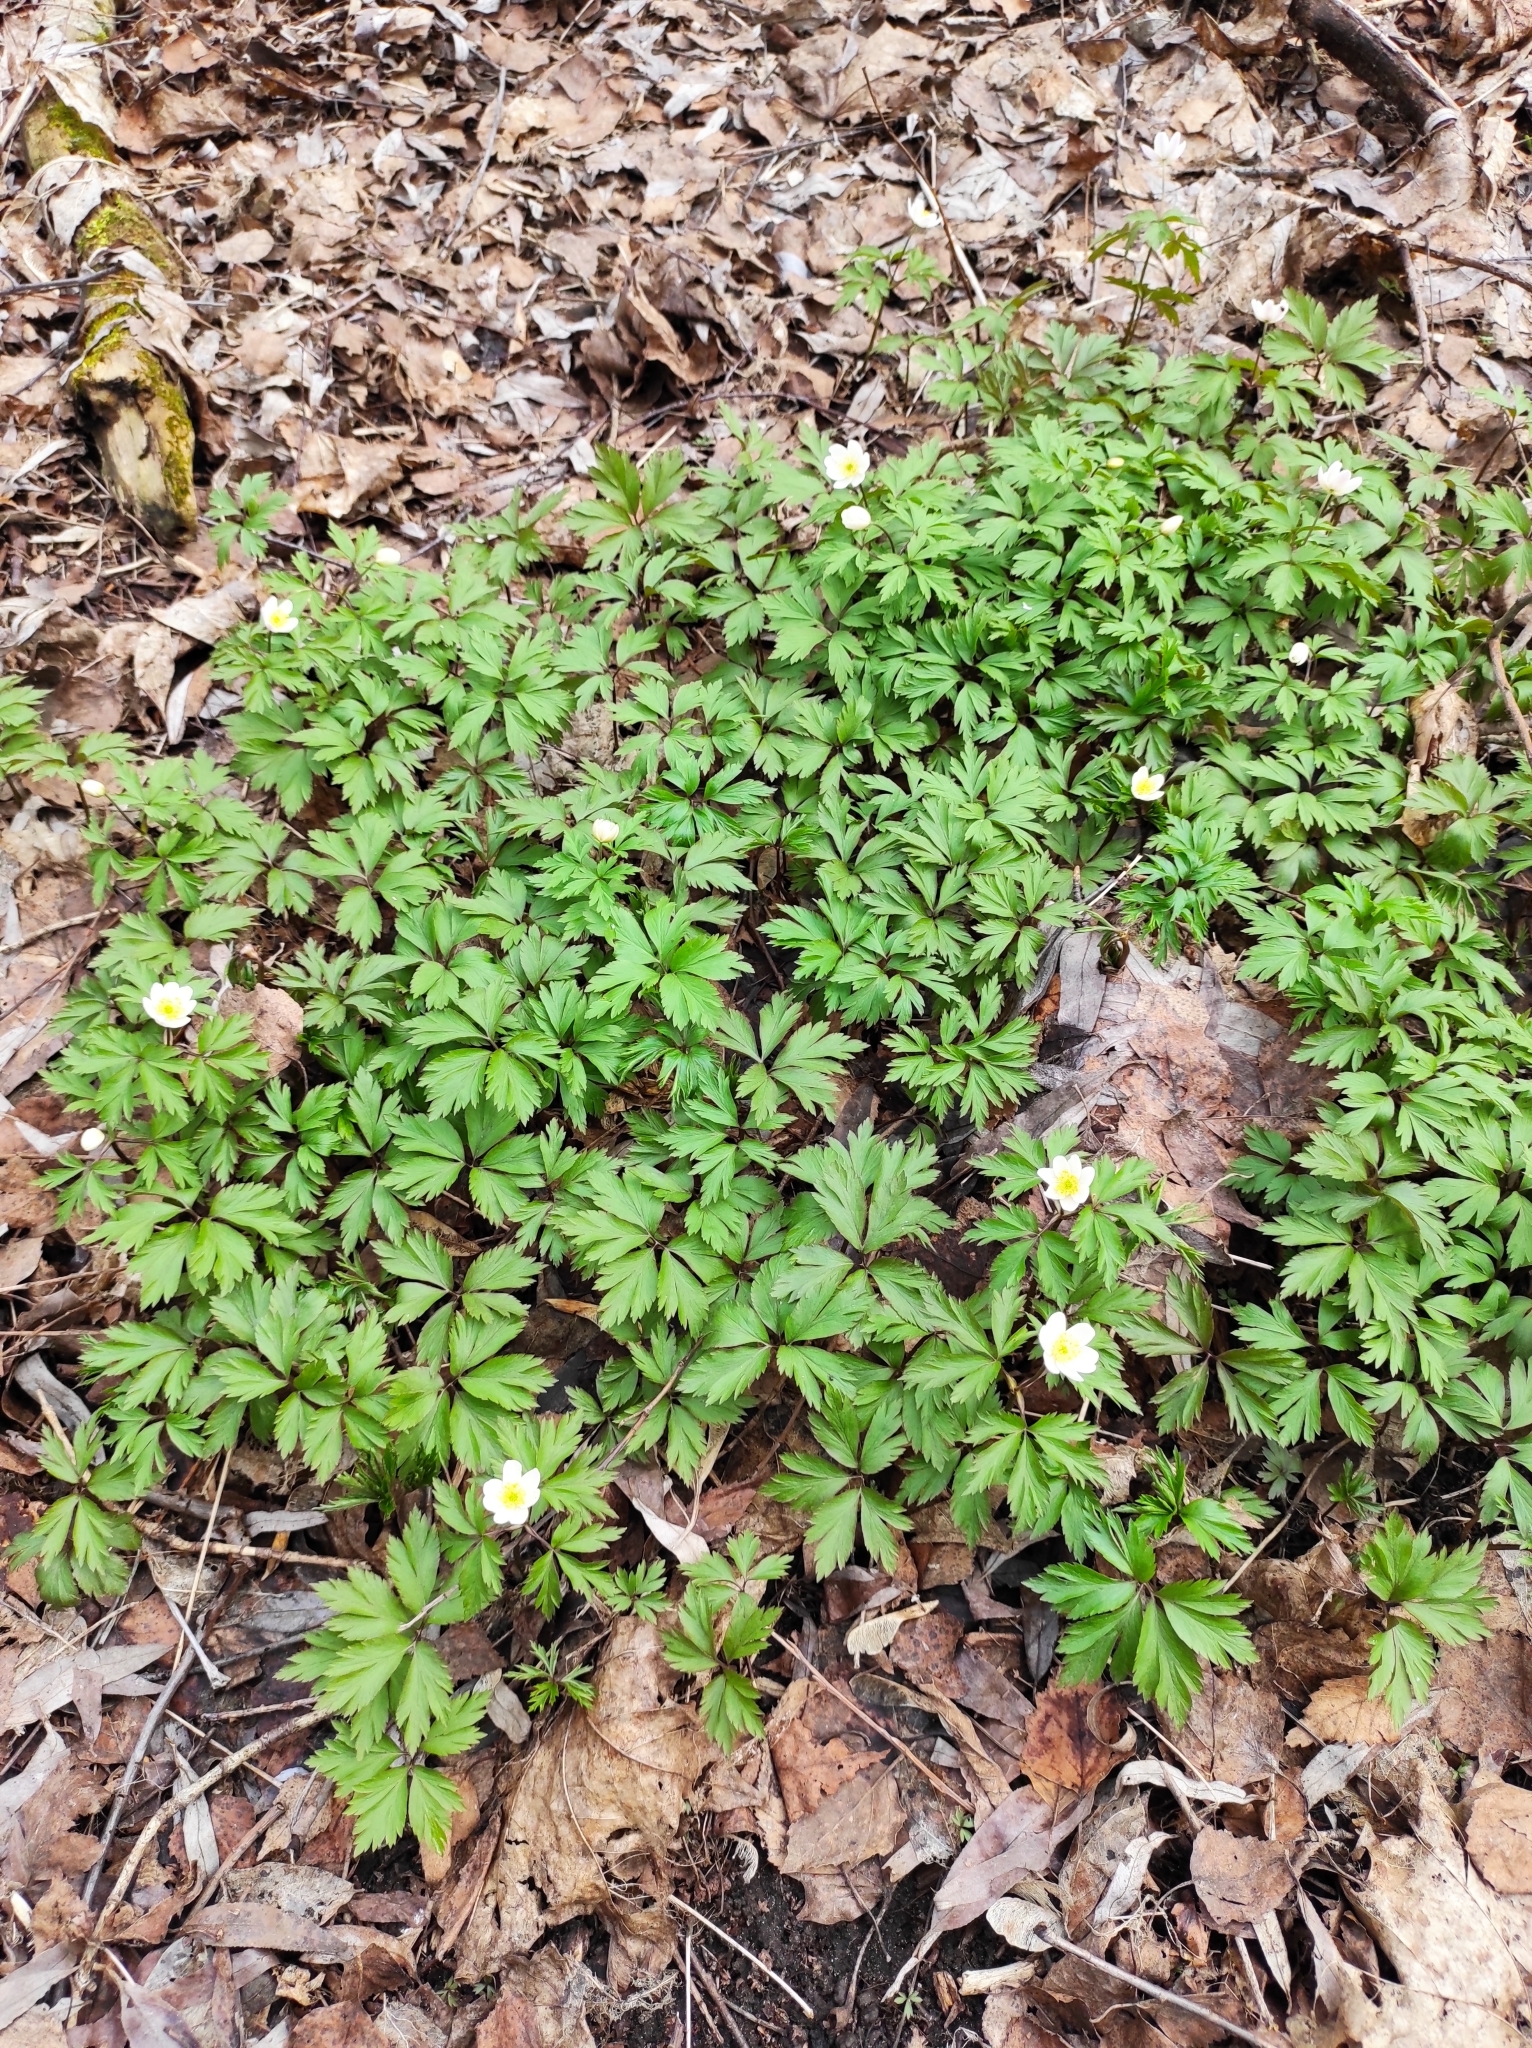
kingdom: Plantae
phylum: Tracheophyta
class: Magnoliopsida
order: Ranunculales
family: Ranunculaceae
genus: Anemone
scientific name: Anemone nemorosa
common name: Wood anemone
